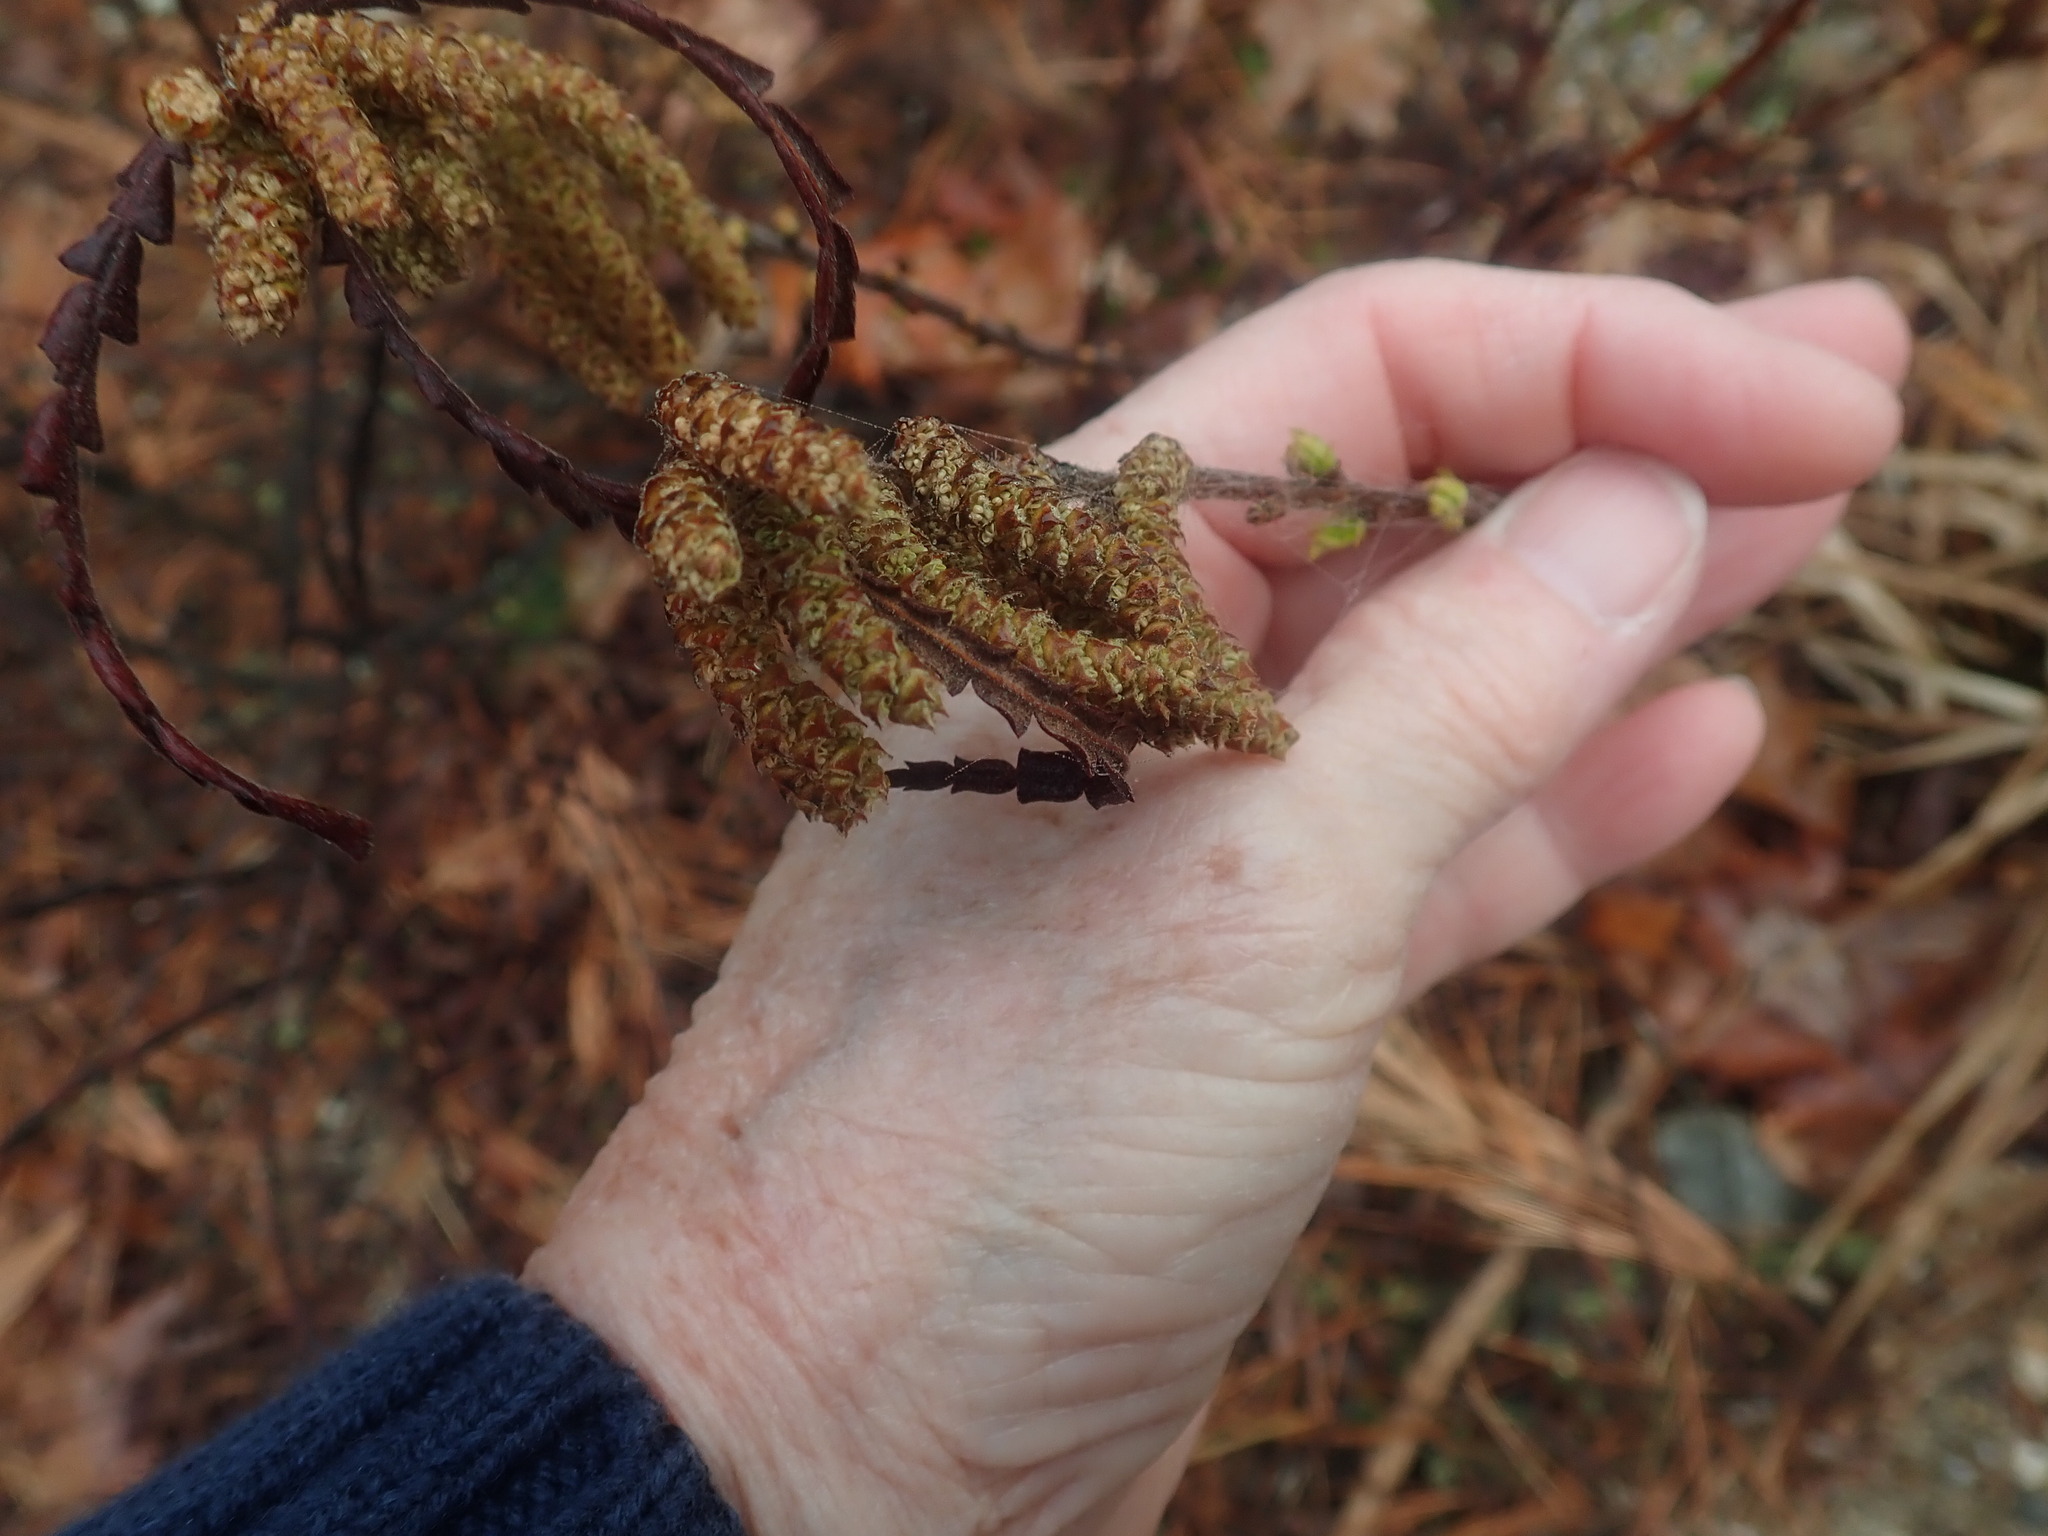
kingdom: Plantae
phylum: Tracheophyta
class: Magnoliopsida
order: Fagales
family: Myricaceae
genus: Comptonia
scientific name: Comptonia peregrina
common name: Sweet-fern
